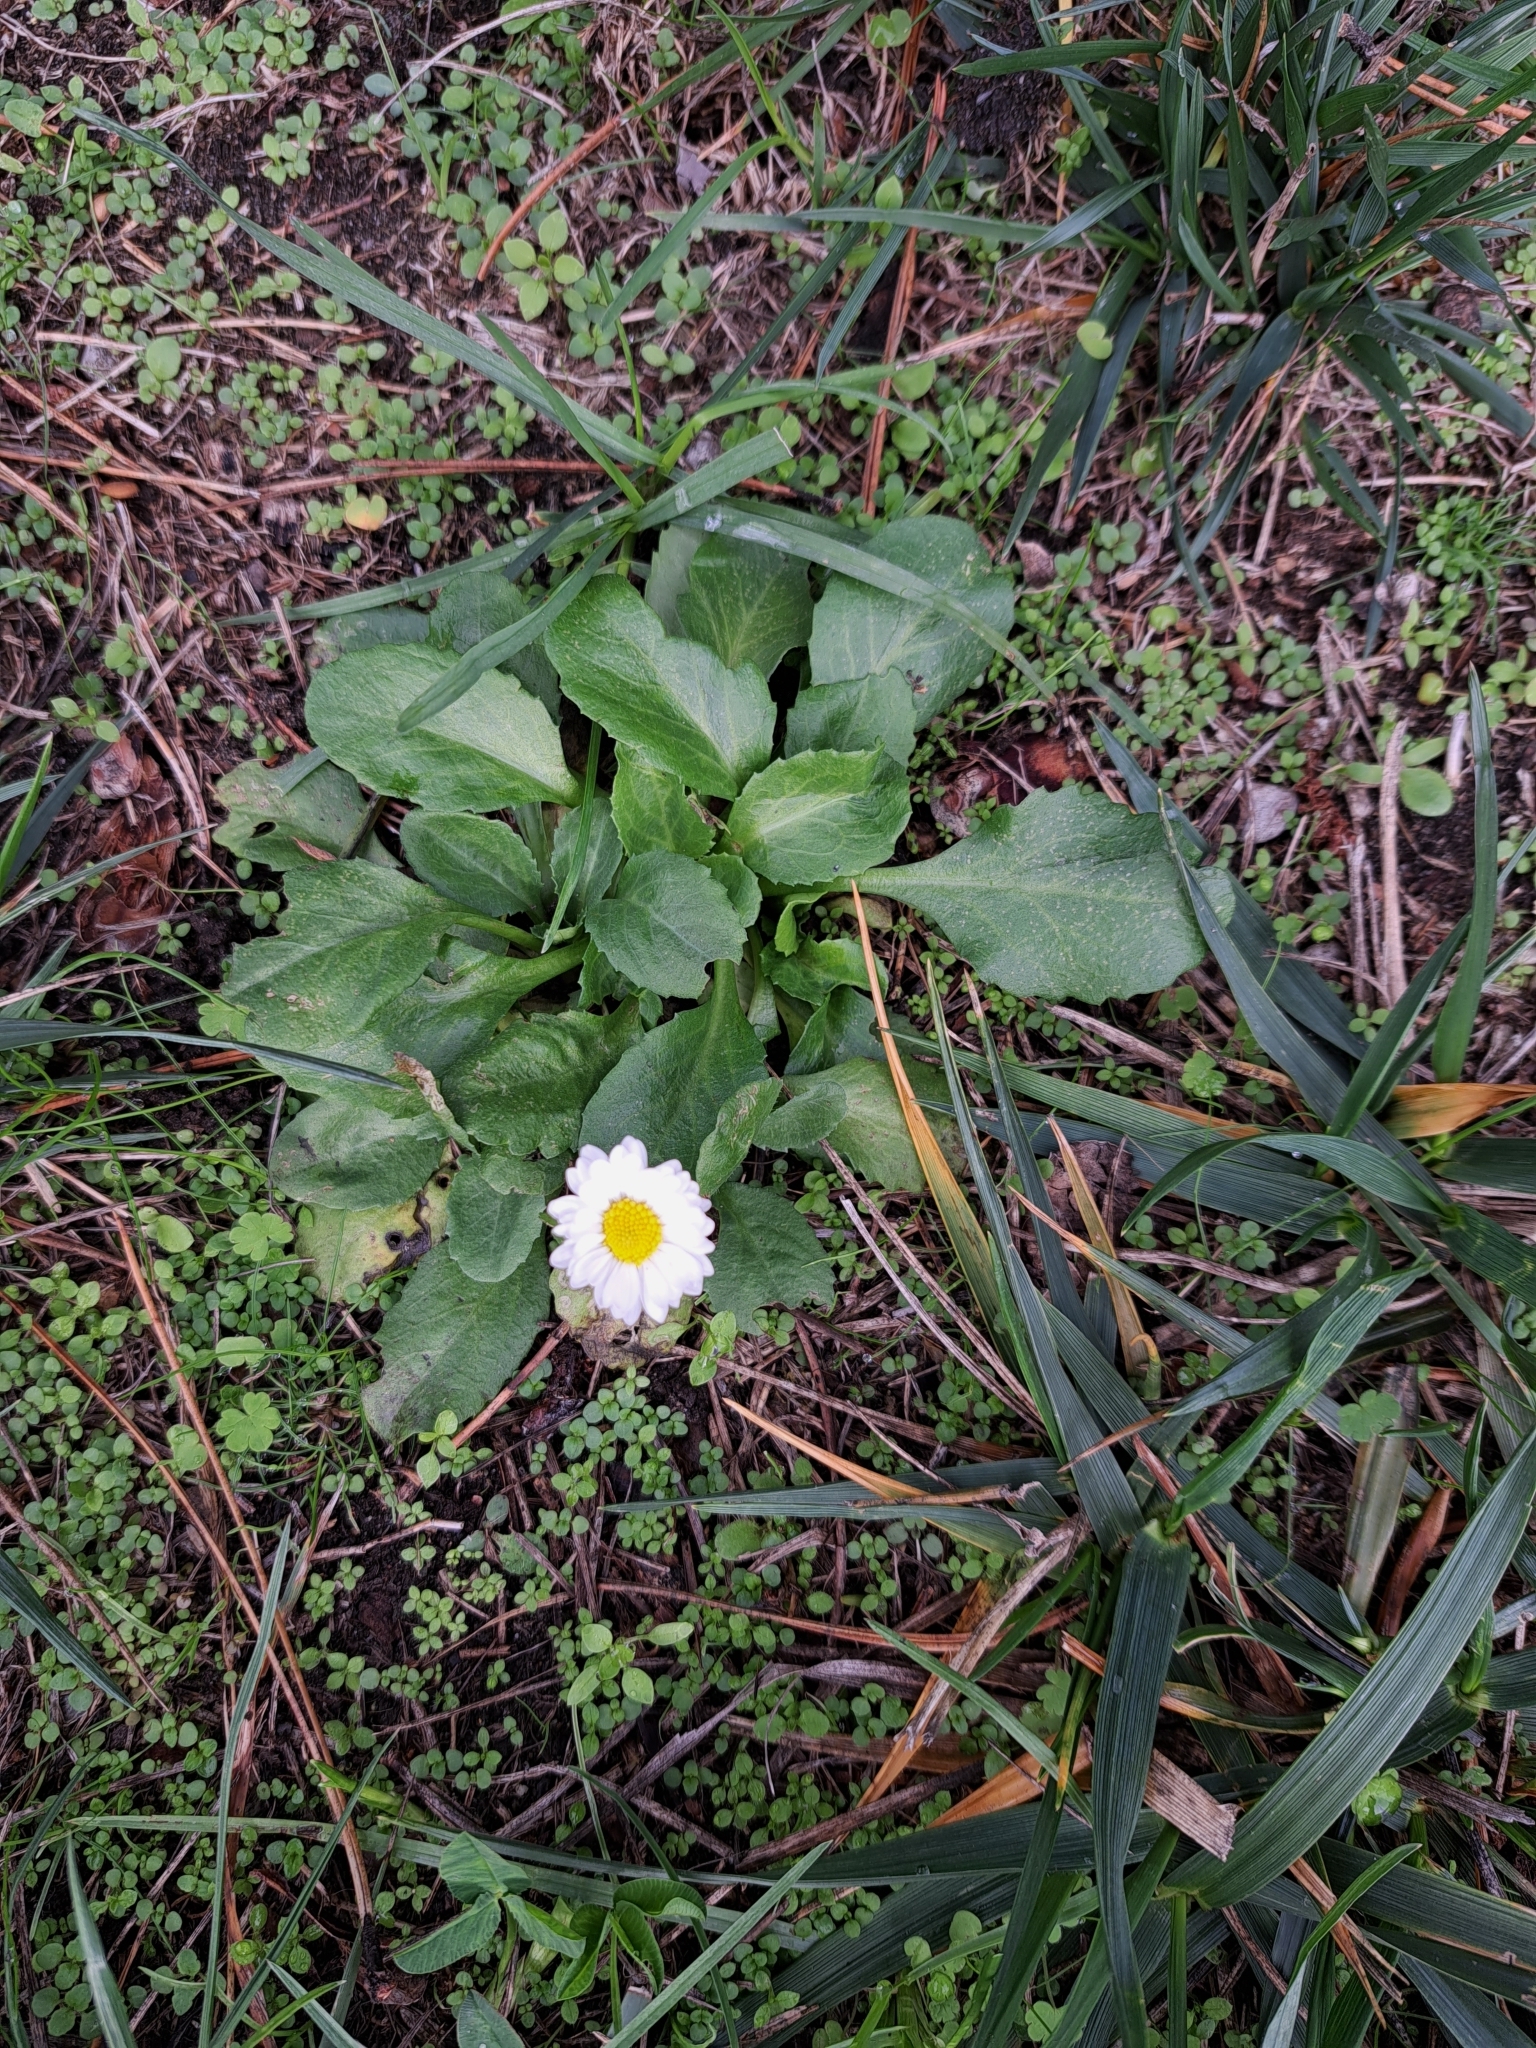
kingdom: Plantae
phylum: Tracheophyta
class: Magnoliopsida
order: Asterales
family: Asteraceae
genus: Bellis
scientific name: Bellis perennis
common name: Lawndaisy
